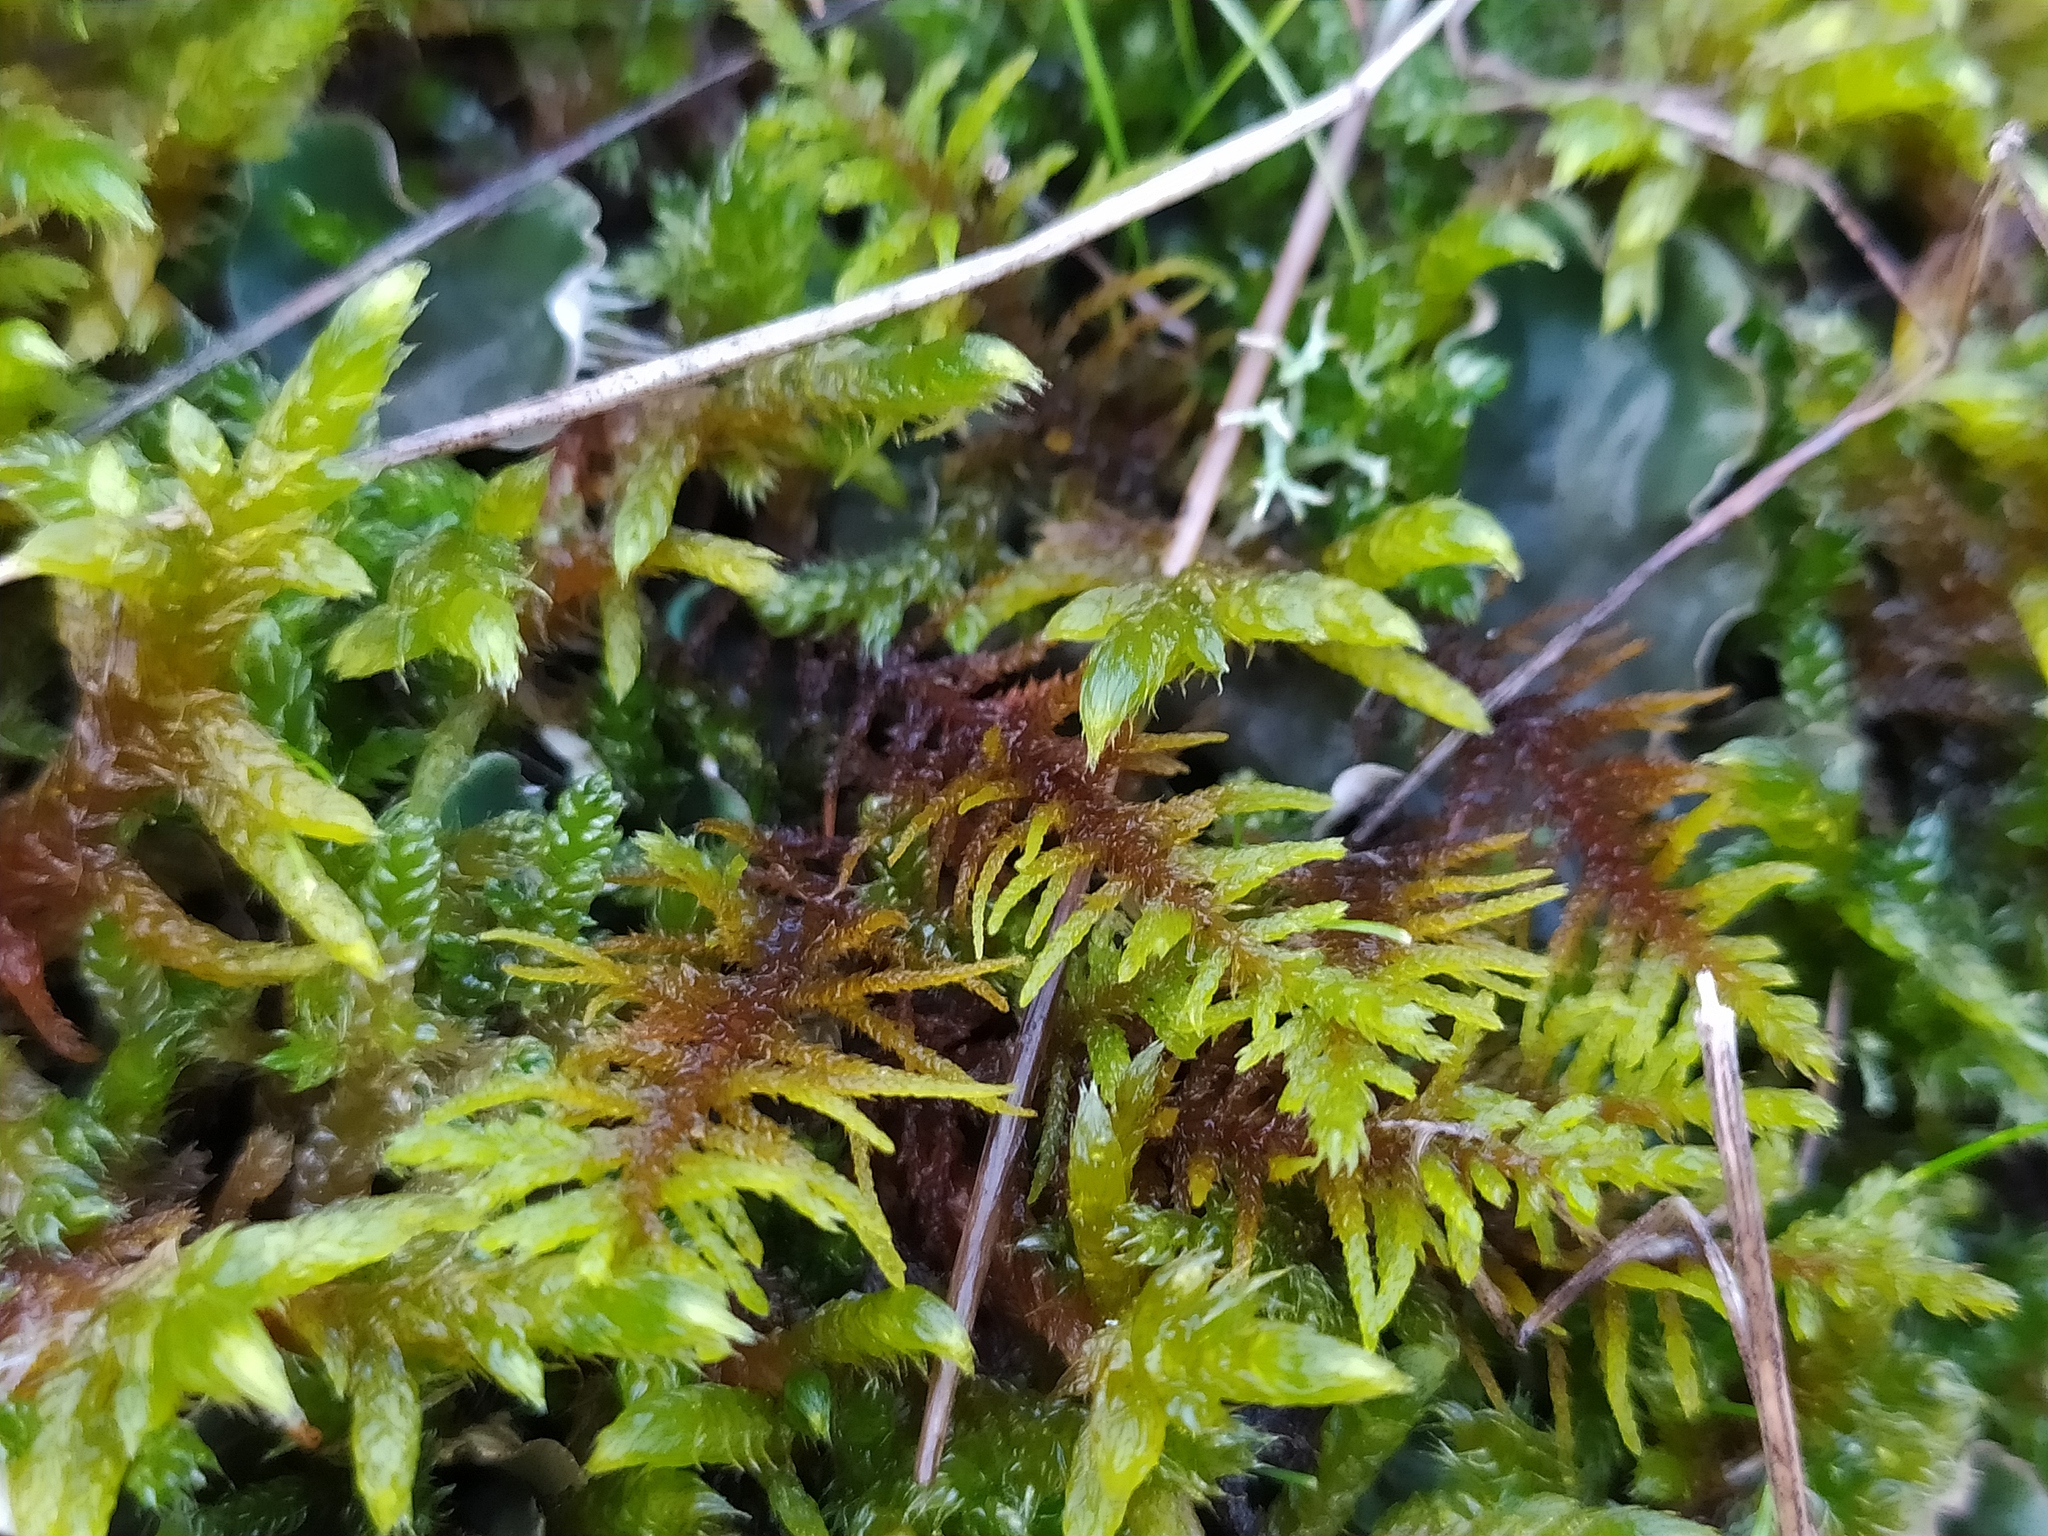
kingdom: Plantae
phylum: Bryophyta
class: Bryopsida
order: Hypnales
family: Thuidiaceae
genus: Abietinella
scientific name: Abietinella abietina
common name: Wiry fern moss
